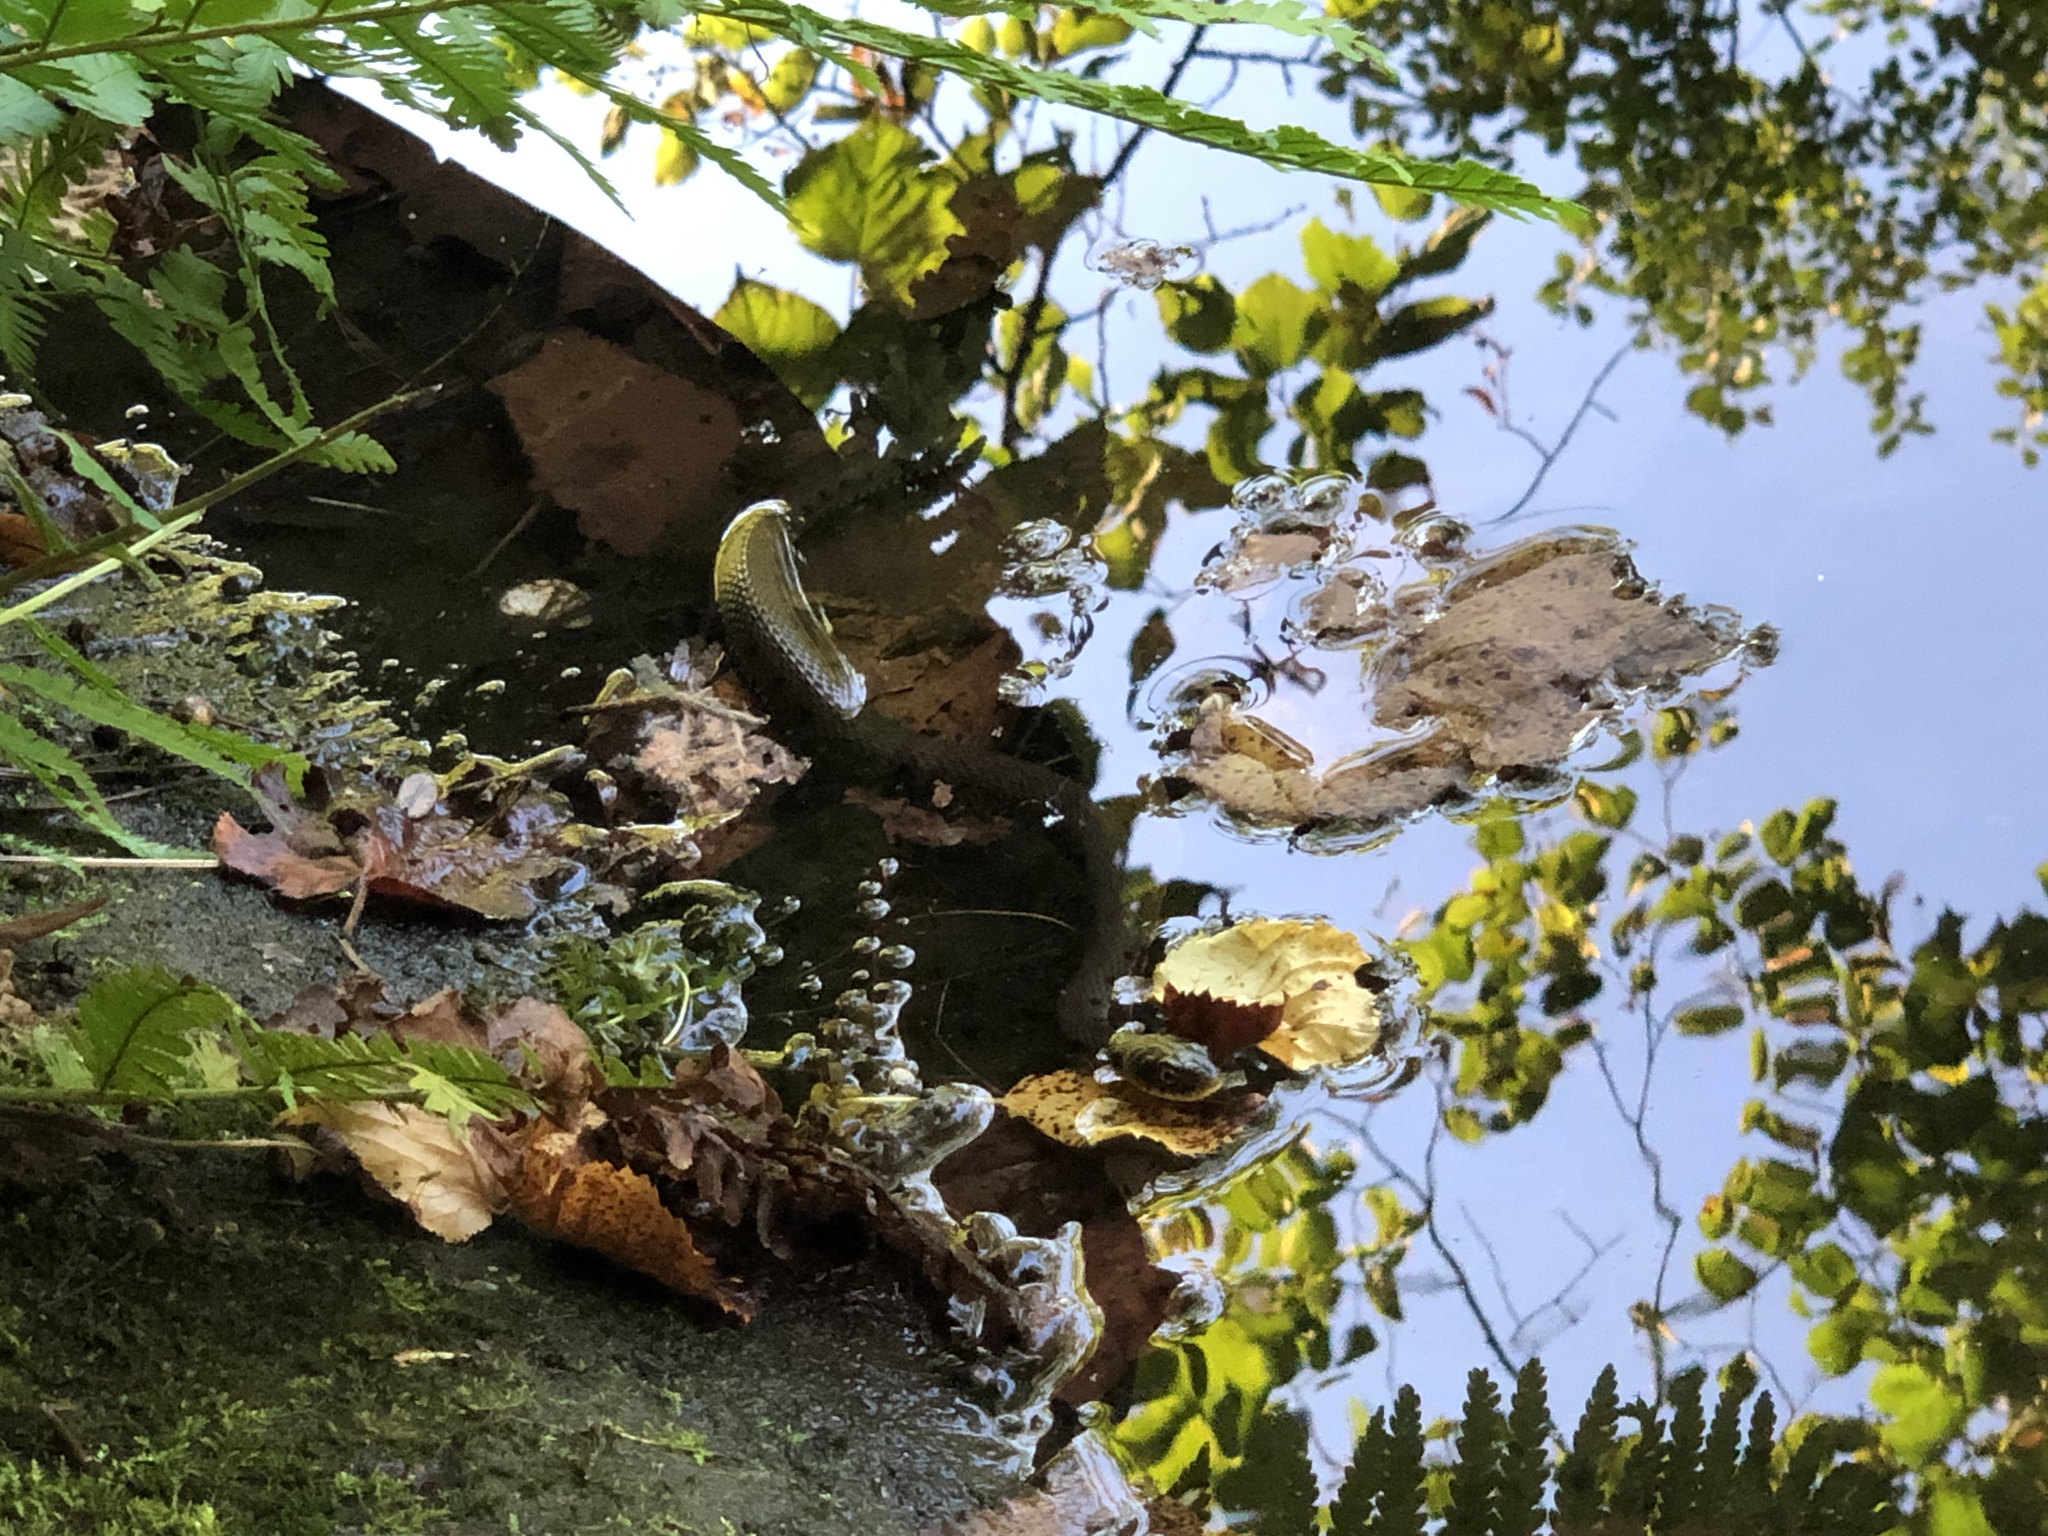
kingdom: Animalia
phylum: Chordata
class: Squamata
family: Colubridae
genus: Natrix
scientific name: Natrix helvetica
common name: Banded grass snake
